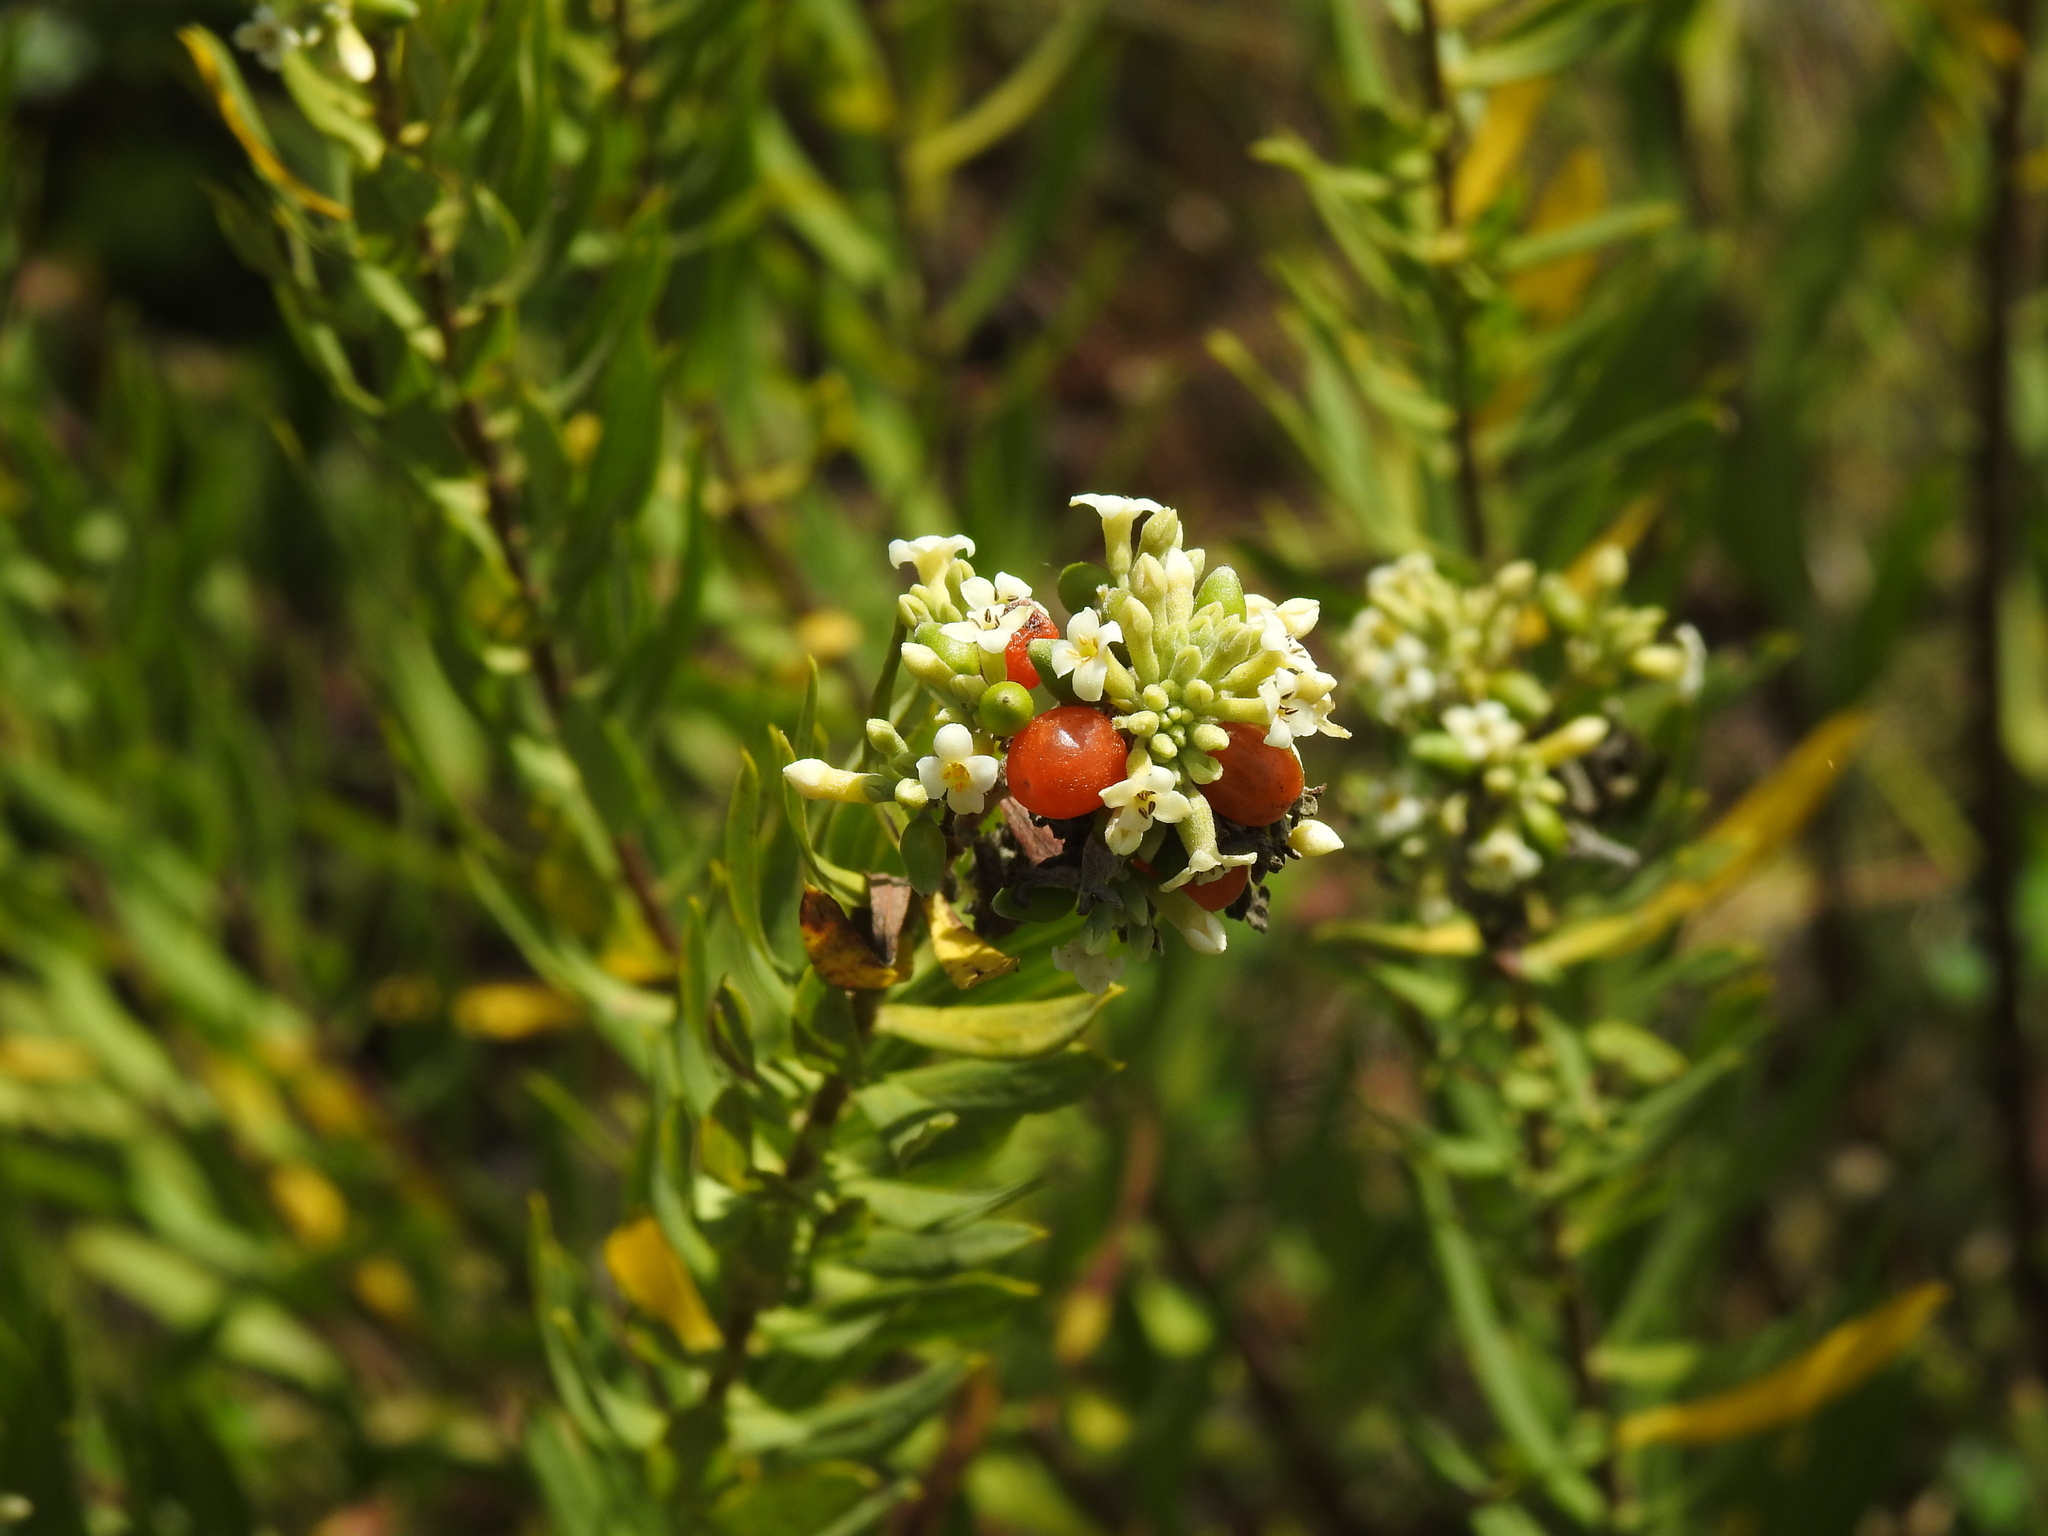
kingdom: Plantae
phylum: Tracheophyta
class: Magnoliopsida
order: Malvales
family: Thymelaeaceae
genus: Daphne
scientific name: Daphne gnidium
